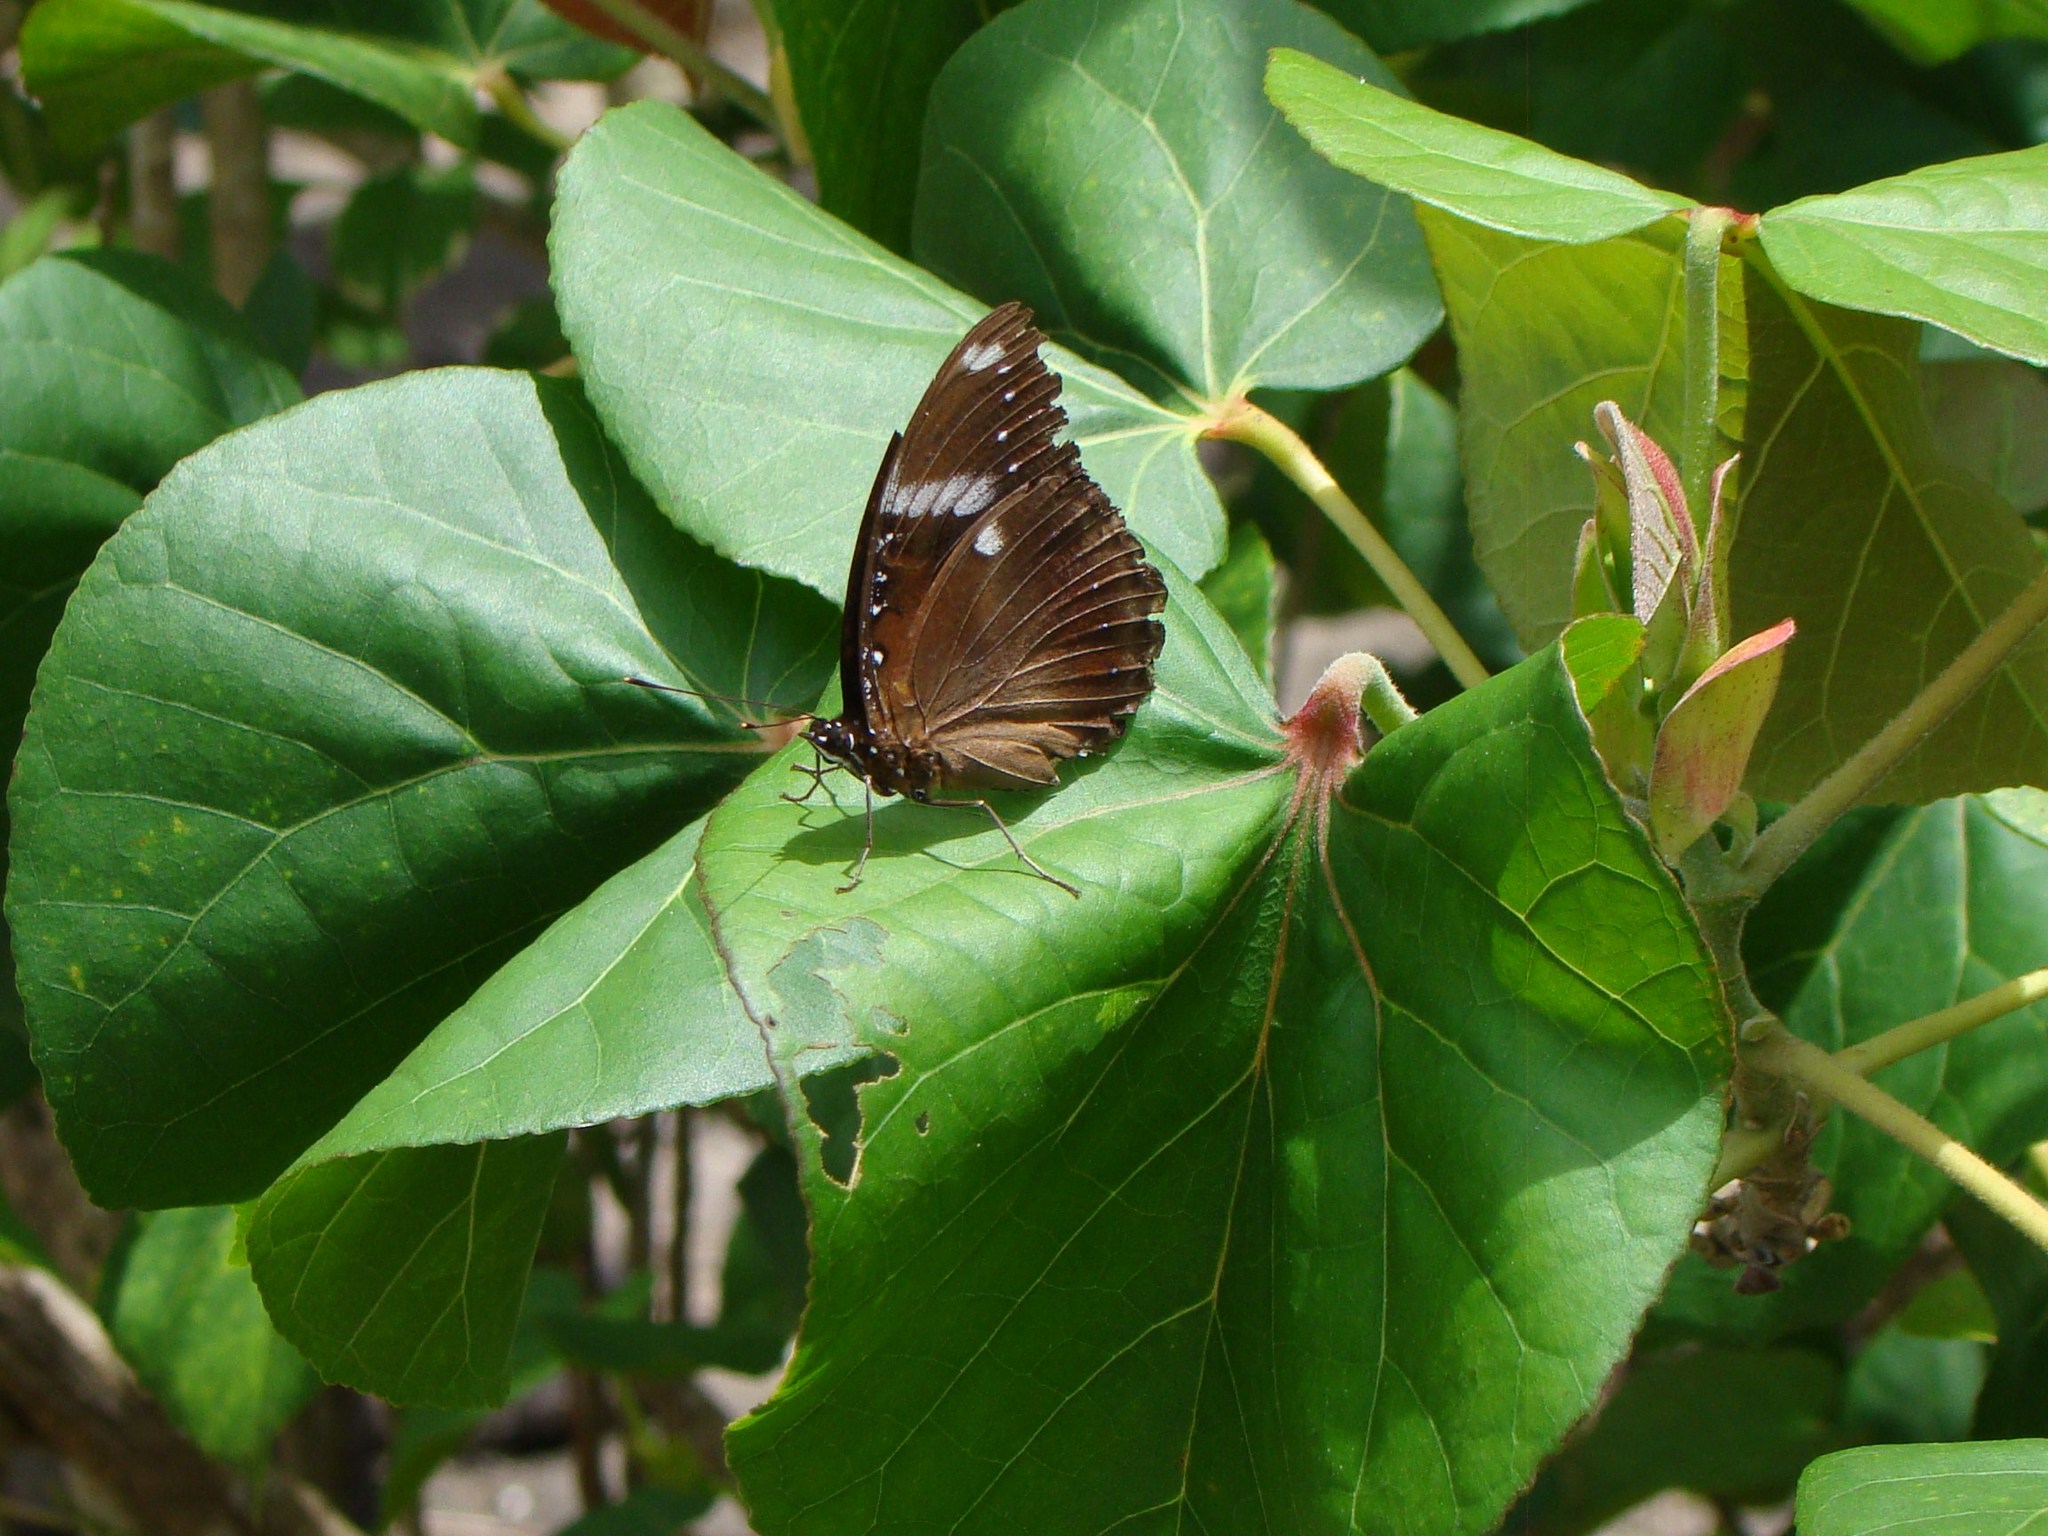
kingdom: Animalia
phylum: Arthropoda
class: Insecta
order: Lepidoptera
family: Nymphalidae
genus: Hypolimnas
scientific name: Hypolimnas bolina
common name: Great eggfly
